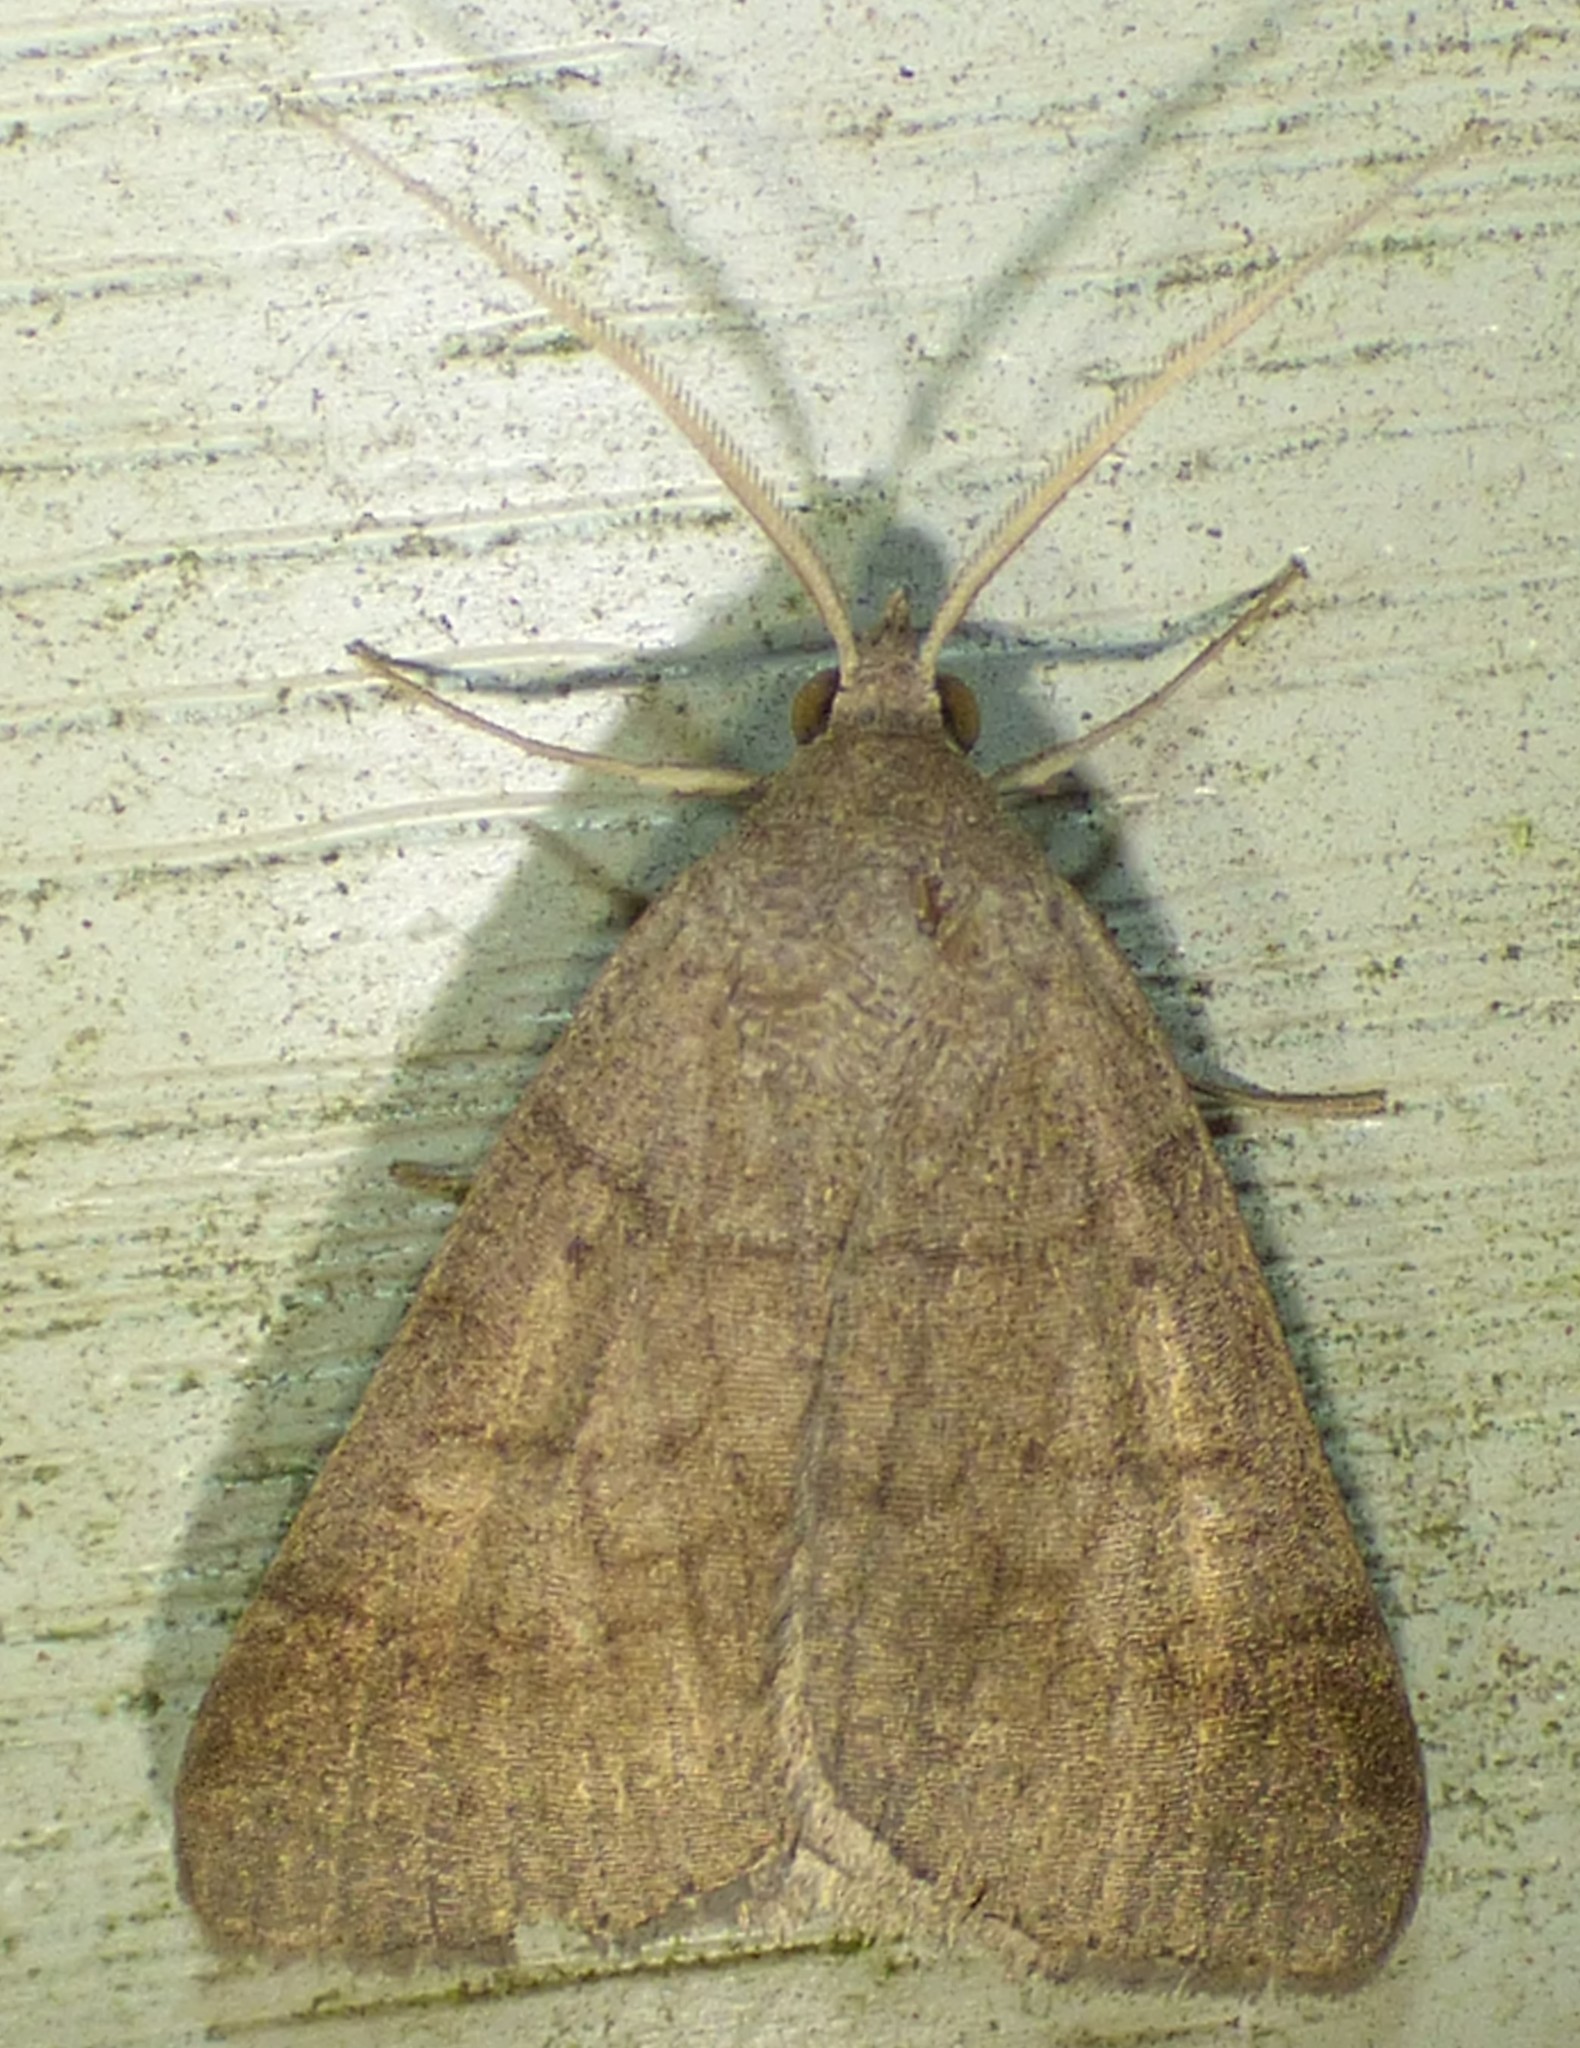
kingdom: Animalia
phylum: Arthropoda
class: Insecta
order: Lepidoptera
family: Erebidae
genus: Caenurgia
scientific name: Caenurgia chloropha
